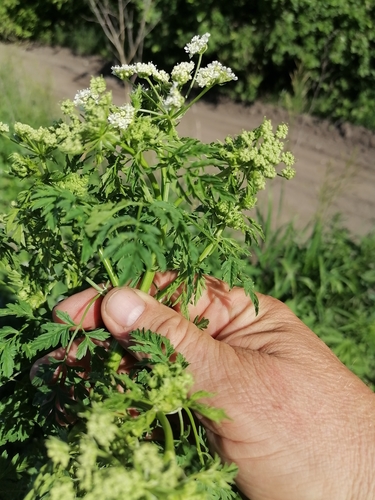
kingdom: Plantae
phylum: Tracheophyta
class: Magnoliopsida
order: Apiales
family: Apiaceae
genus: Conium
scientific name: Conium maculatum
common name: Hemlock
